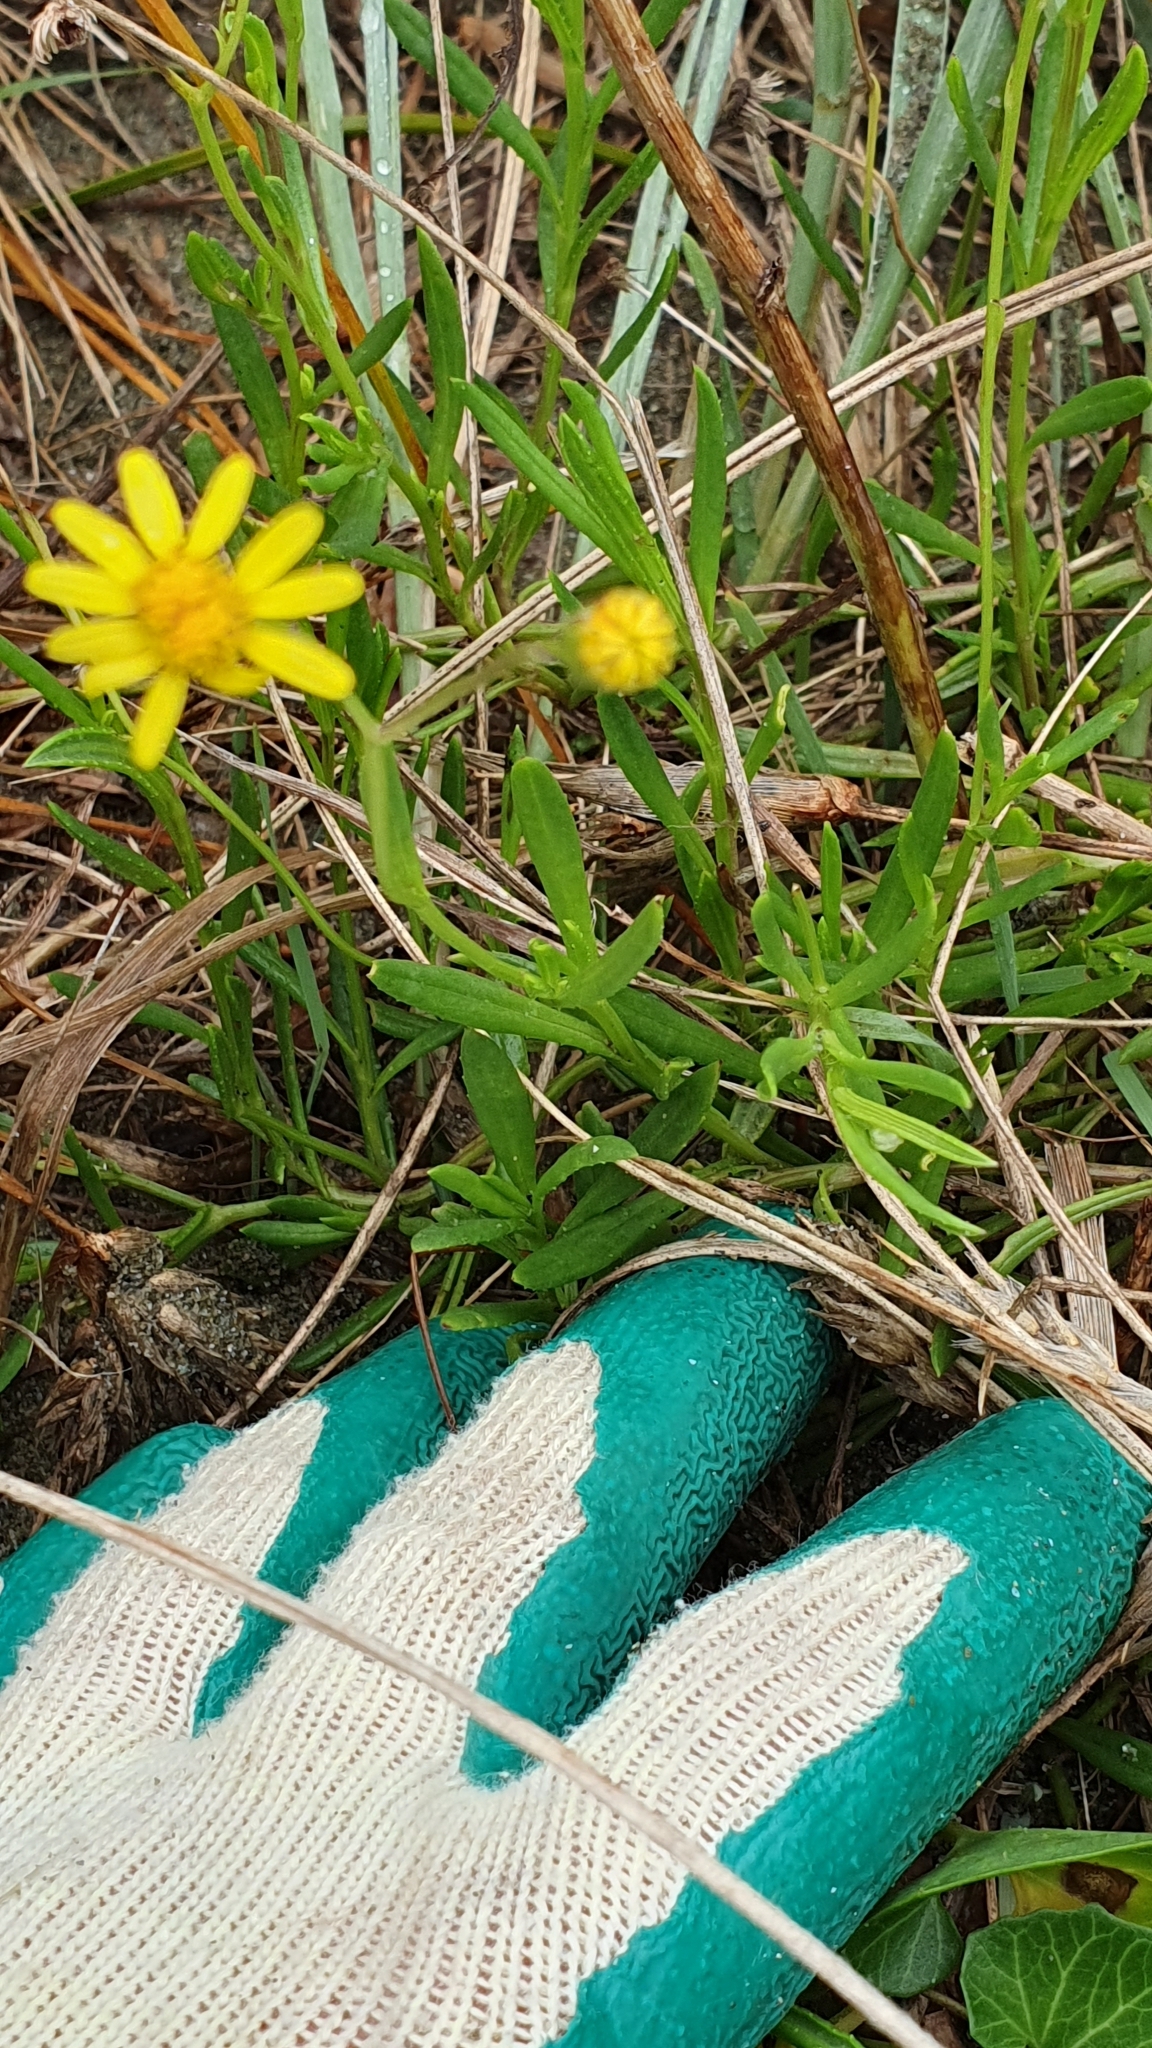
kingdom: Plantae
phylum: Tracheophyta
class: Magnoliopsida
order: Asterales
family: Asteraceae
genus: Senecio
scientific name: Senecio skirrhodon
